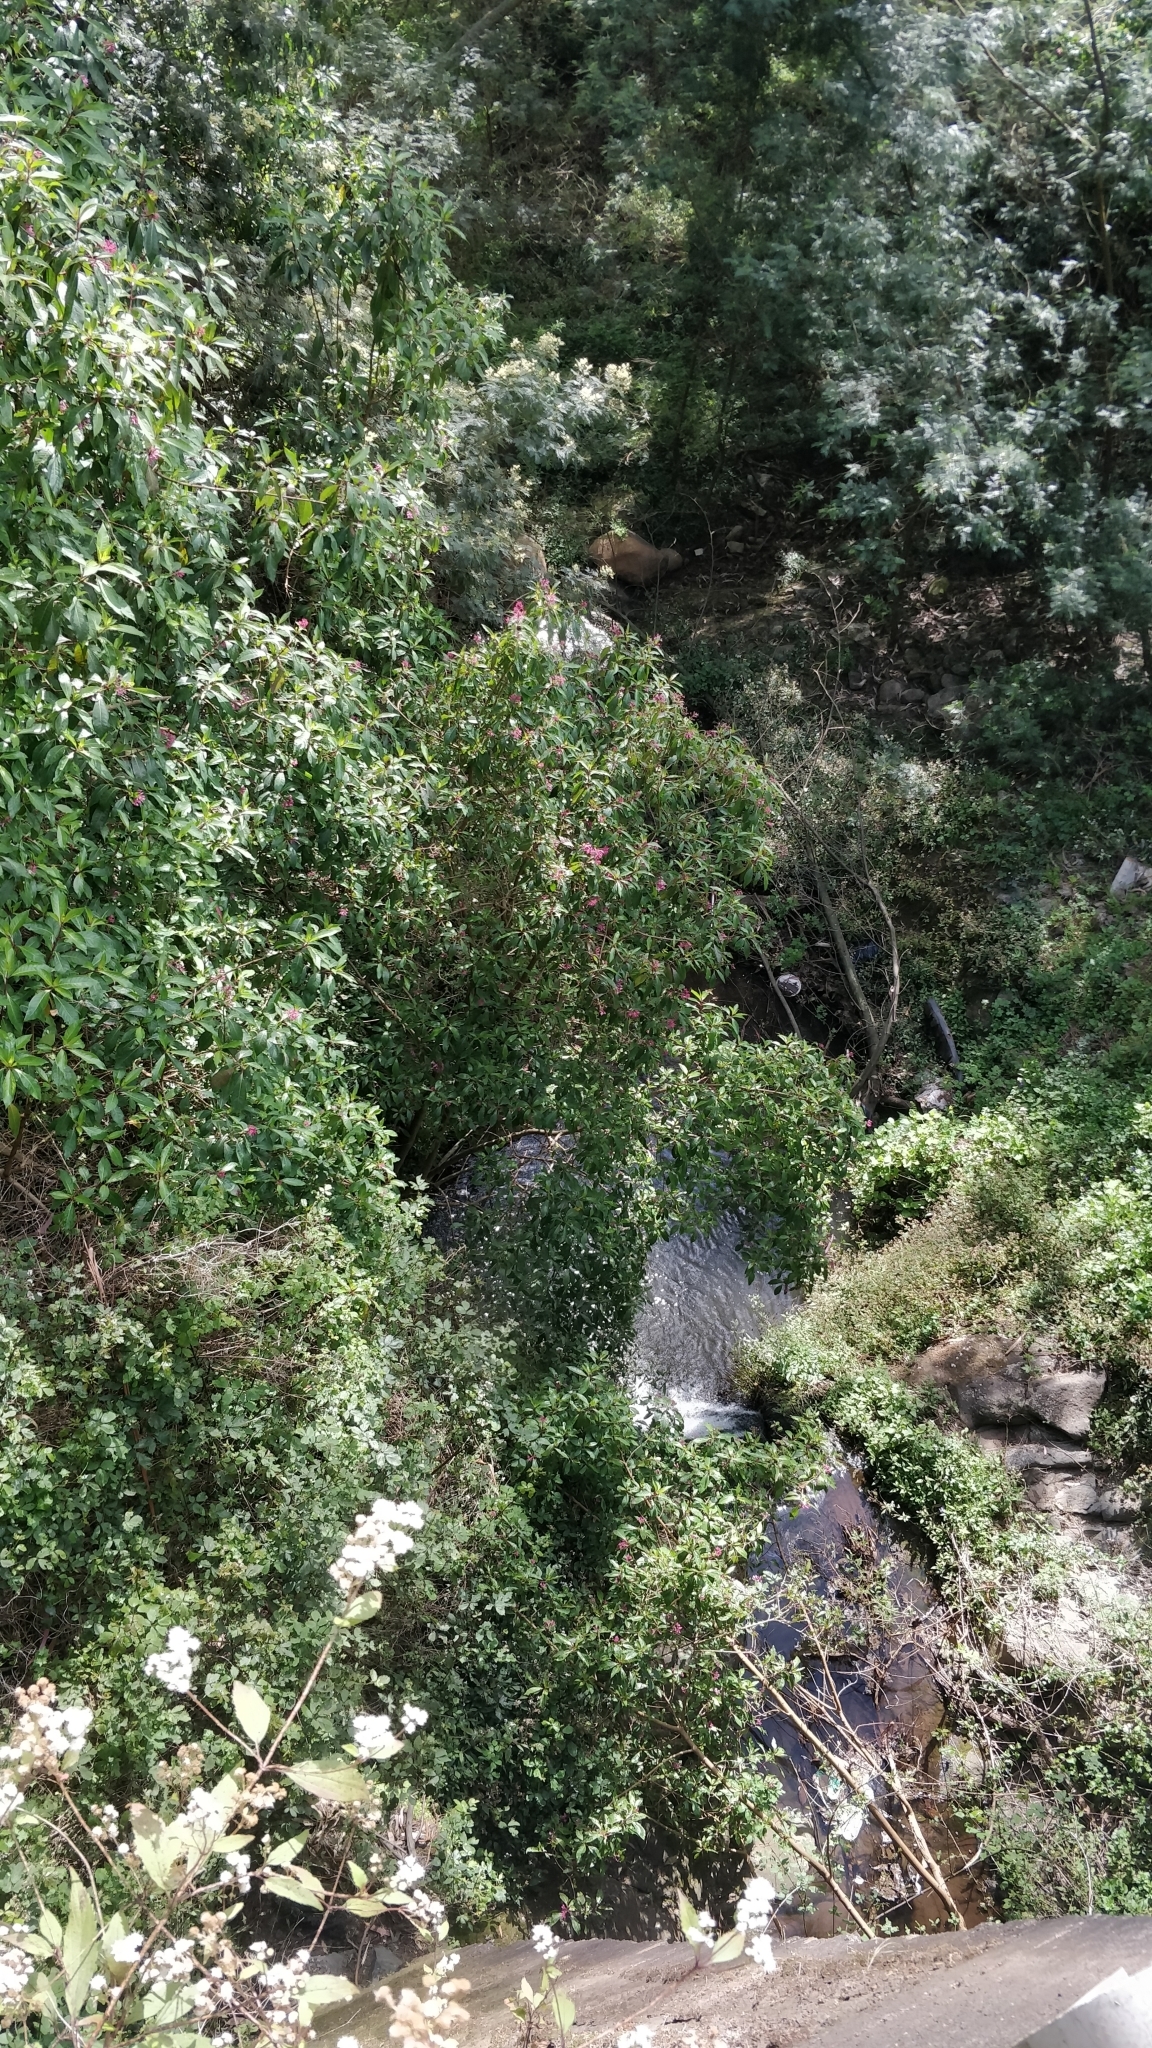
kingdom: Plantae
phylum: Tracheophyta
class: Magnoliopsida
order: Myrtales
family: Onagraceae
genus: Fuchsia
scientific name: Fuchsia arborescens
